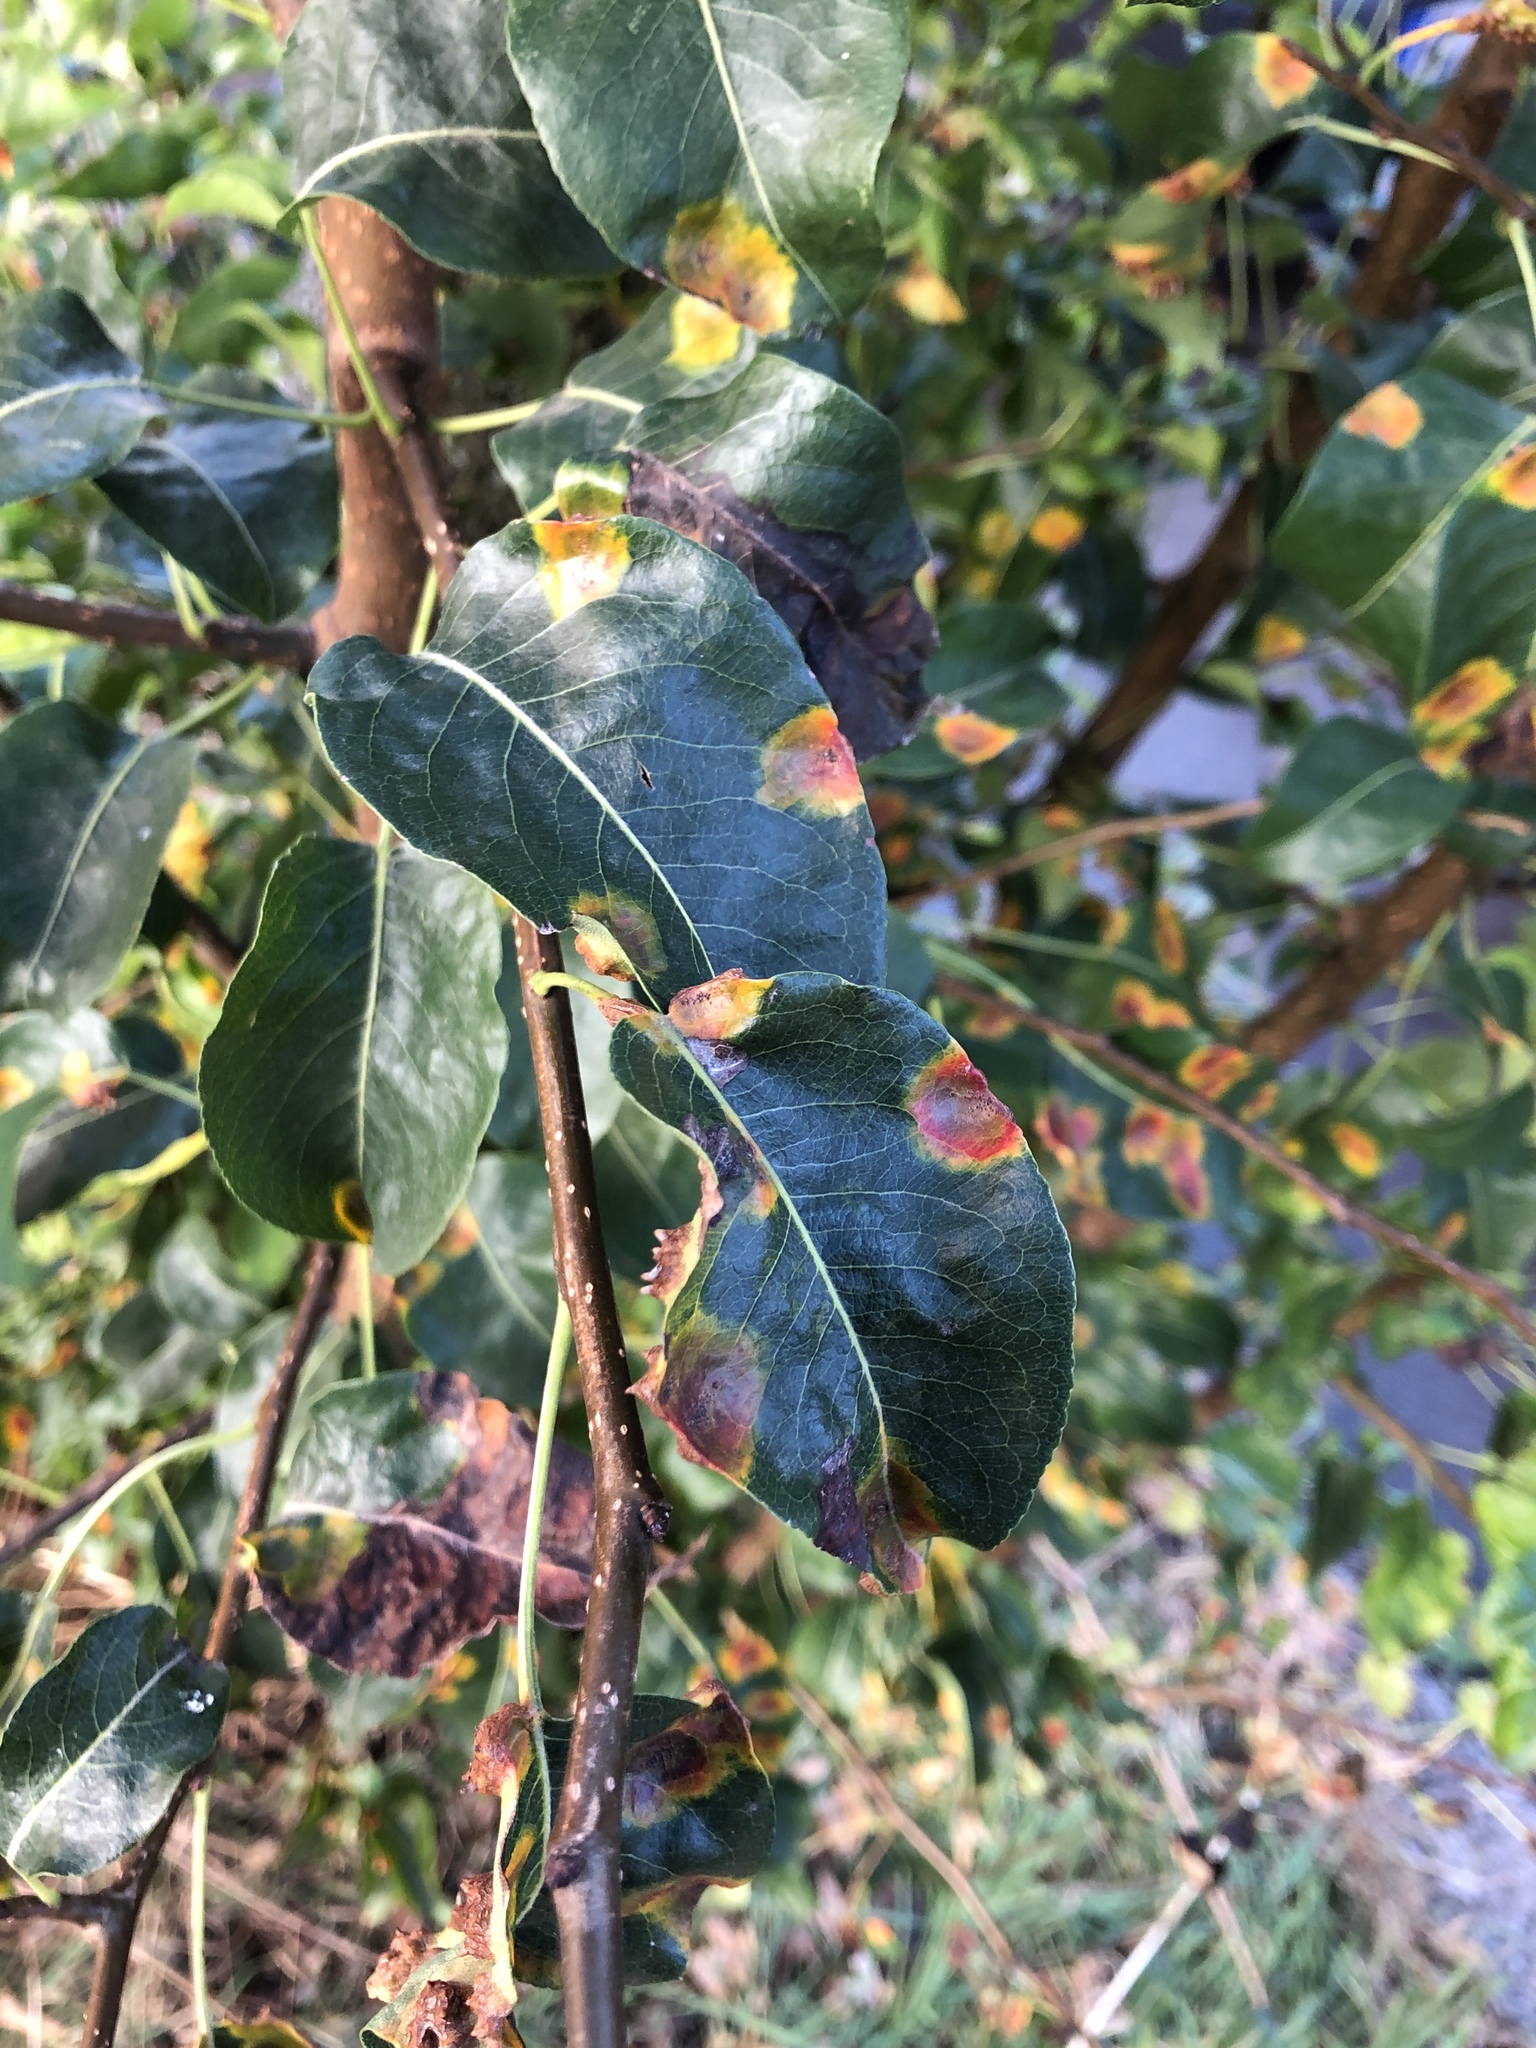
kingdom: Fungi
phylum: Basidiomycota
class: Pucciniomycetes
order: Pucciniales
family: Gymnosporangiaceae
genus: Gymnosporangium
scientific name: Gymnosporangium sabinae
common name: Pear trellis rust fungus
